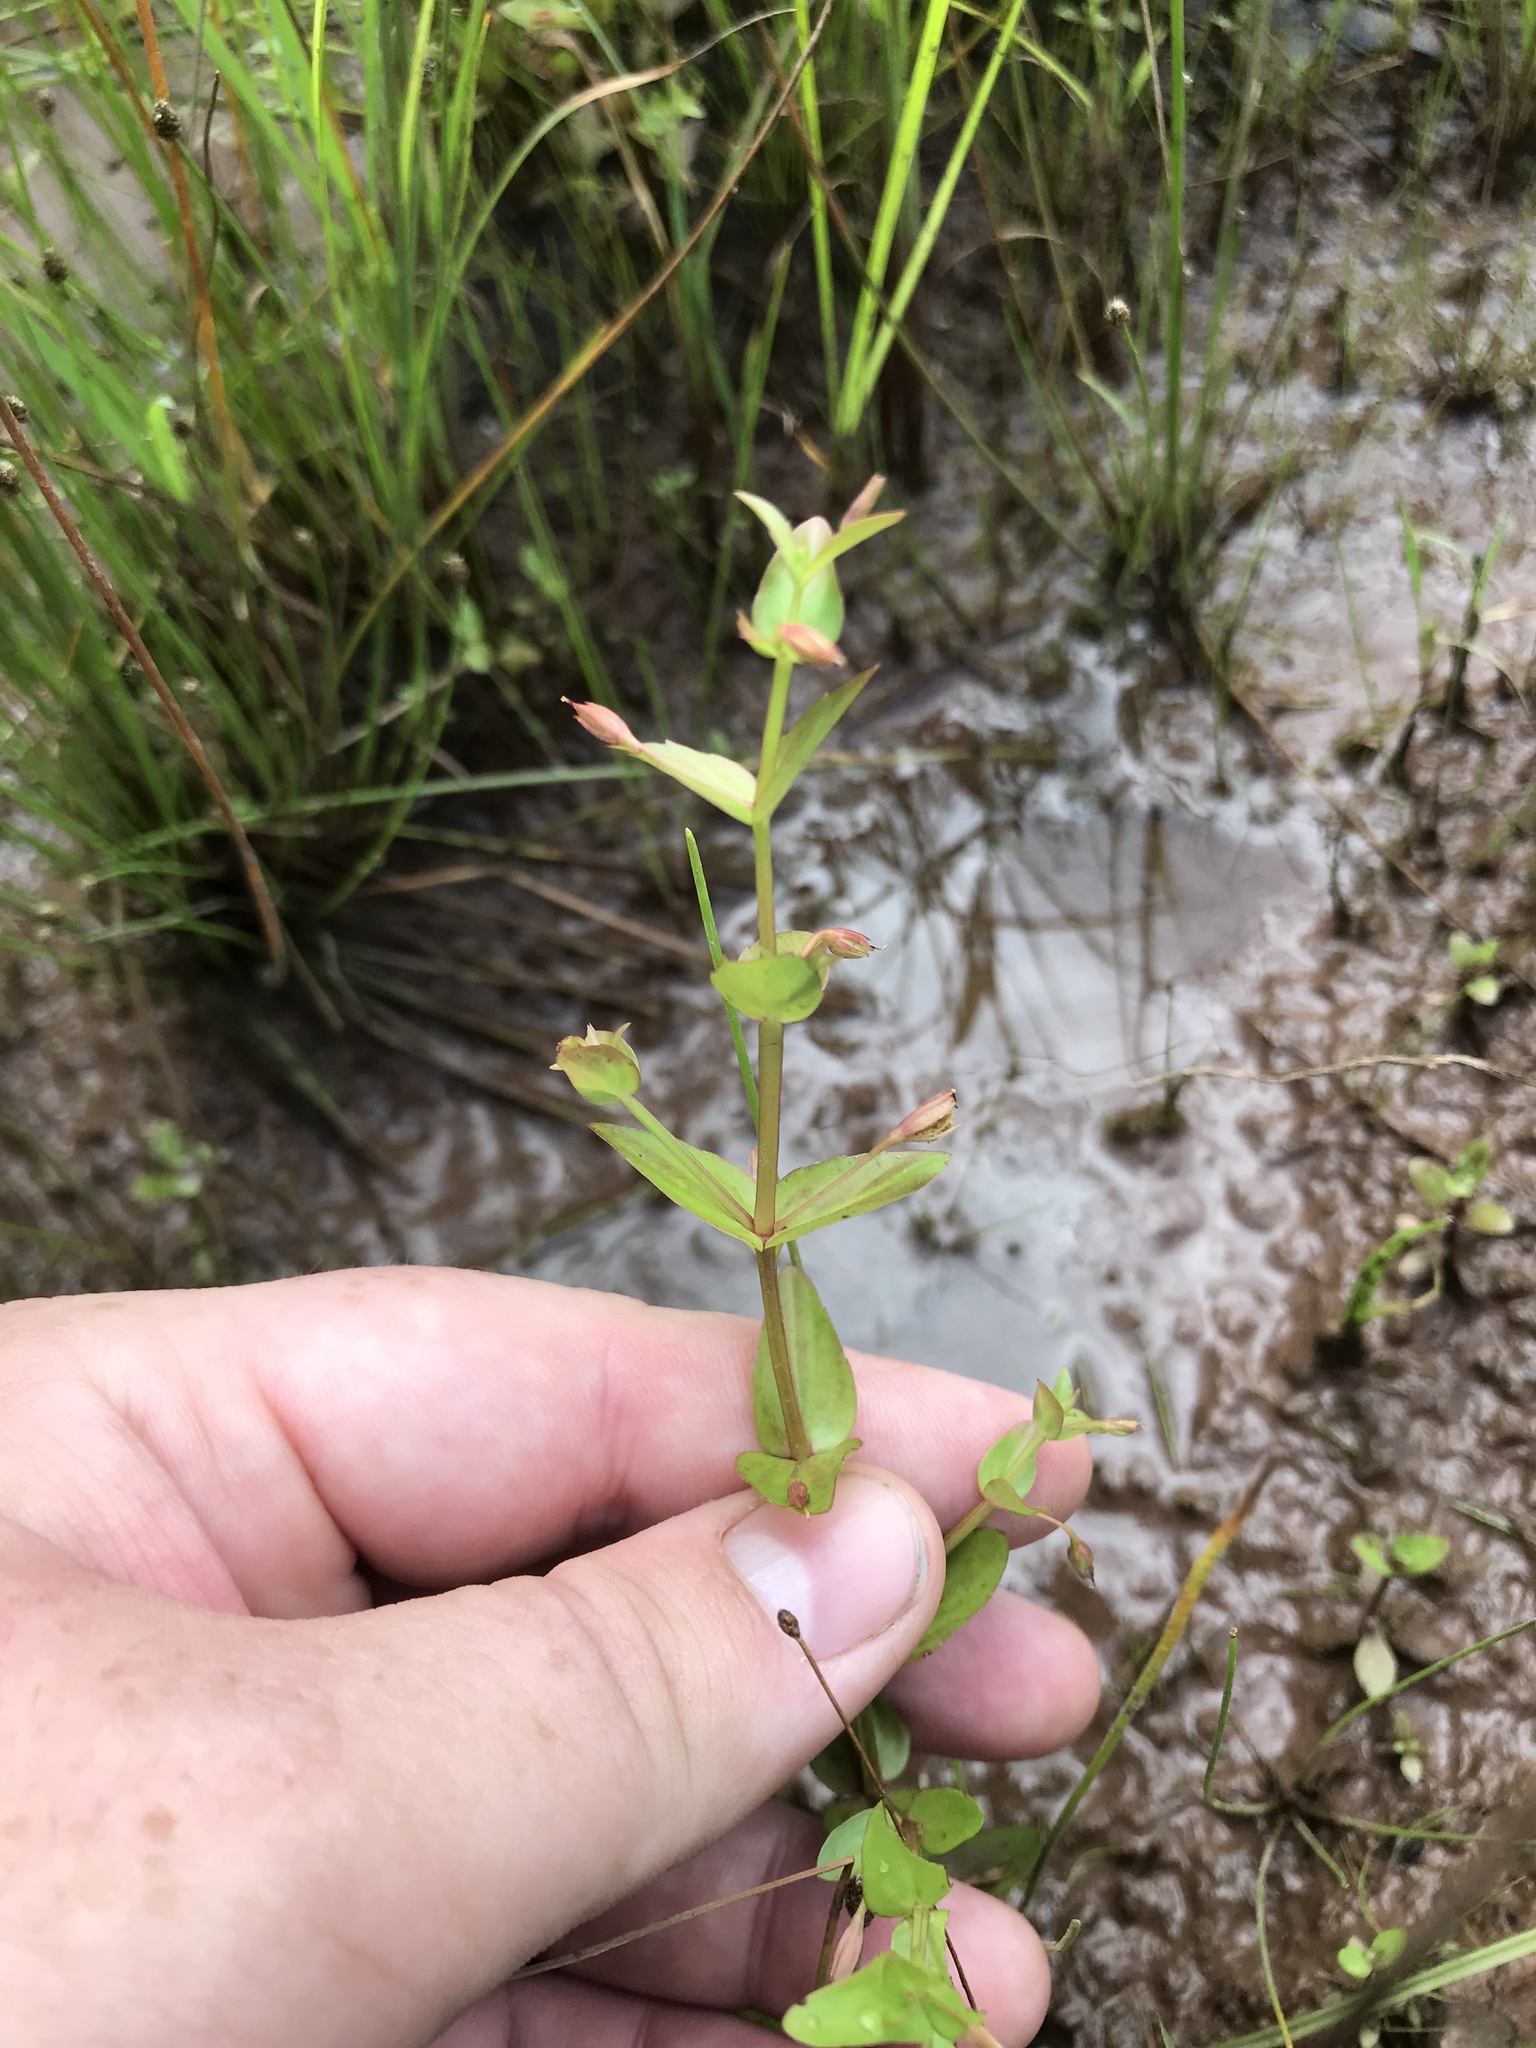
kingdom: Plantae
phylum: Tracheophyta
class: Magnoliopsida
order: Lamiales
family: Linderniaceae
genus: Lindernia
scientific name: Lindernia dubia
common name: Annual false pimpernel
